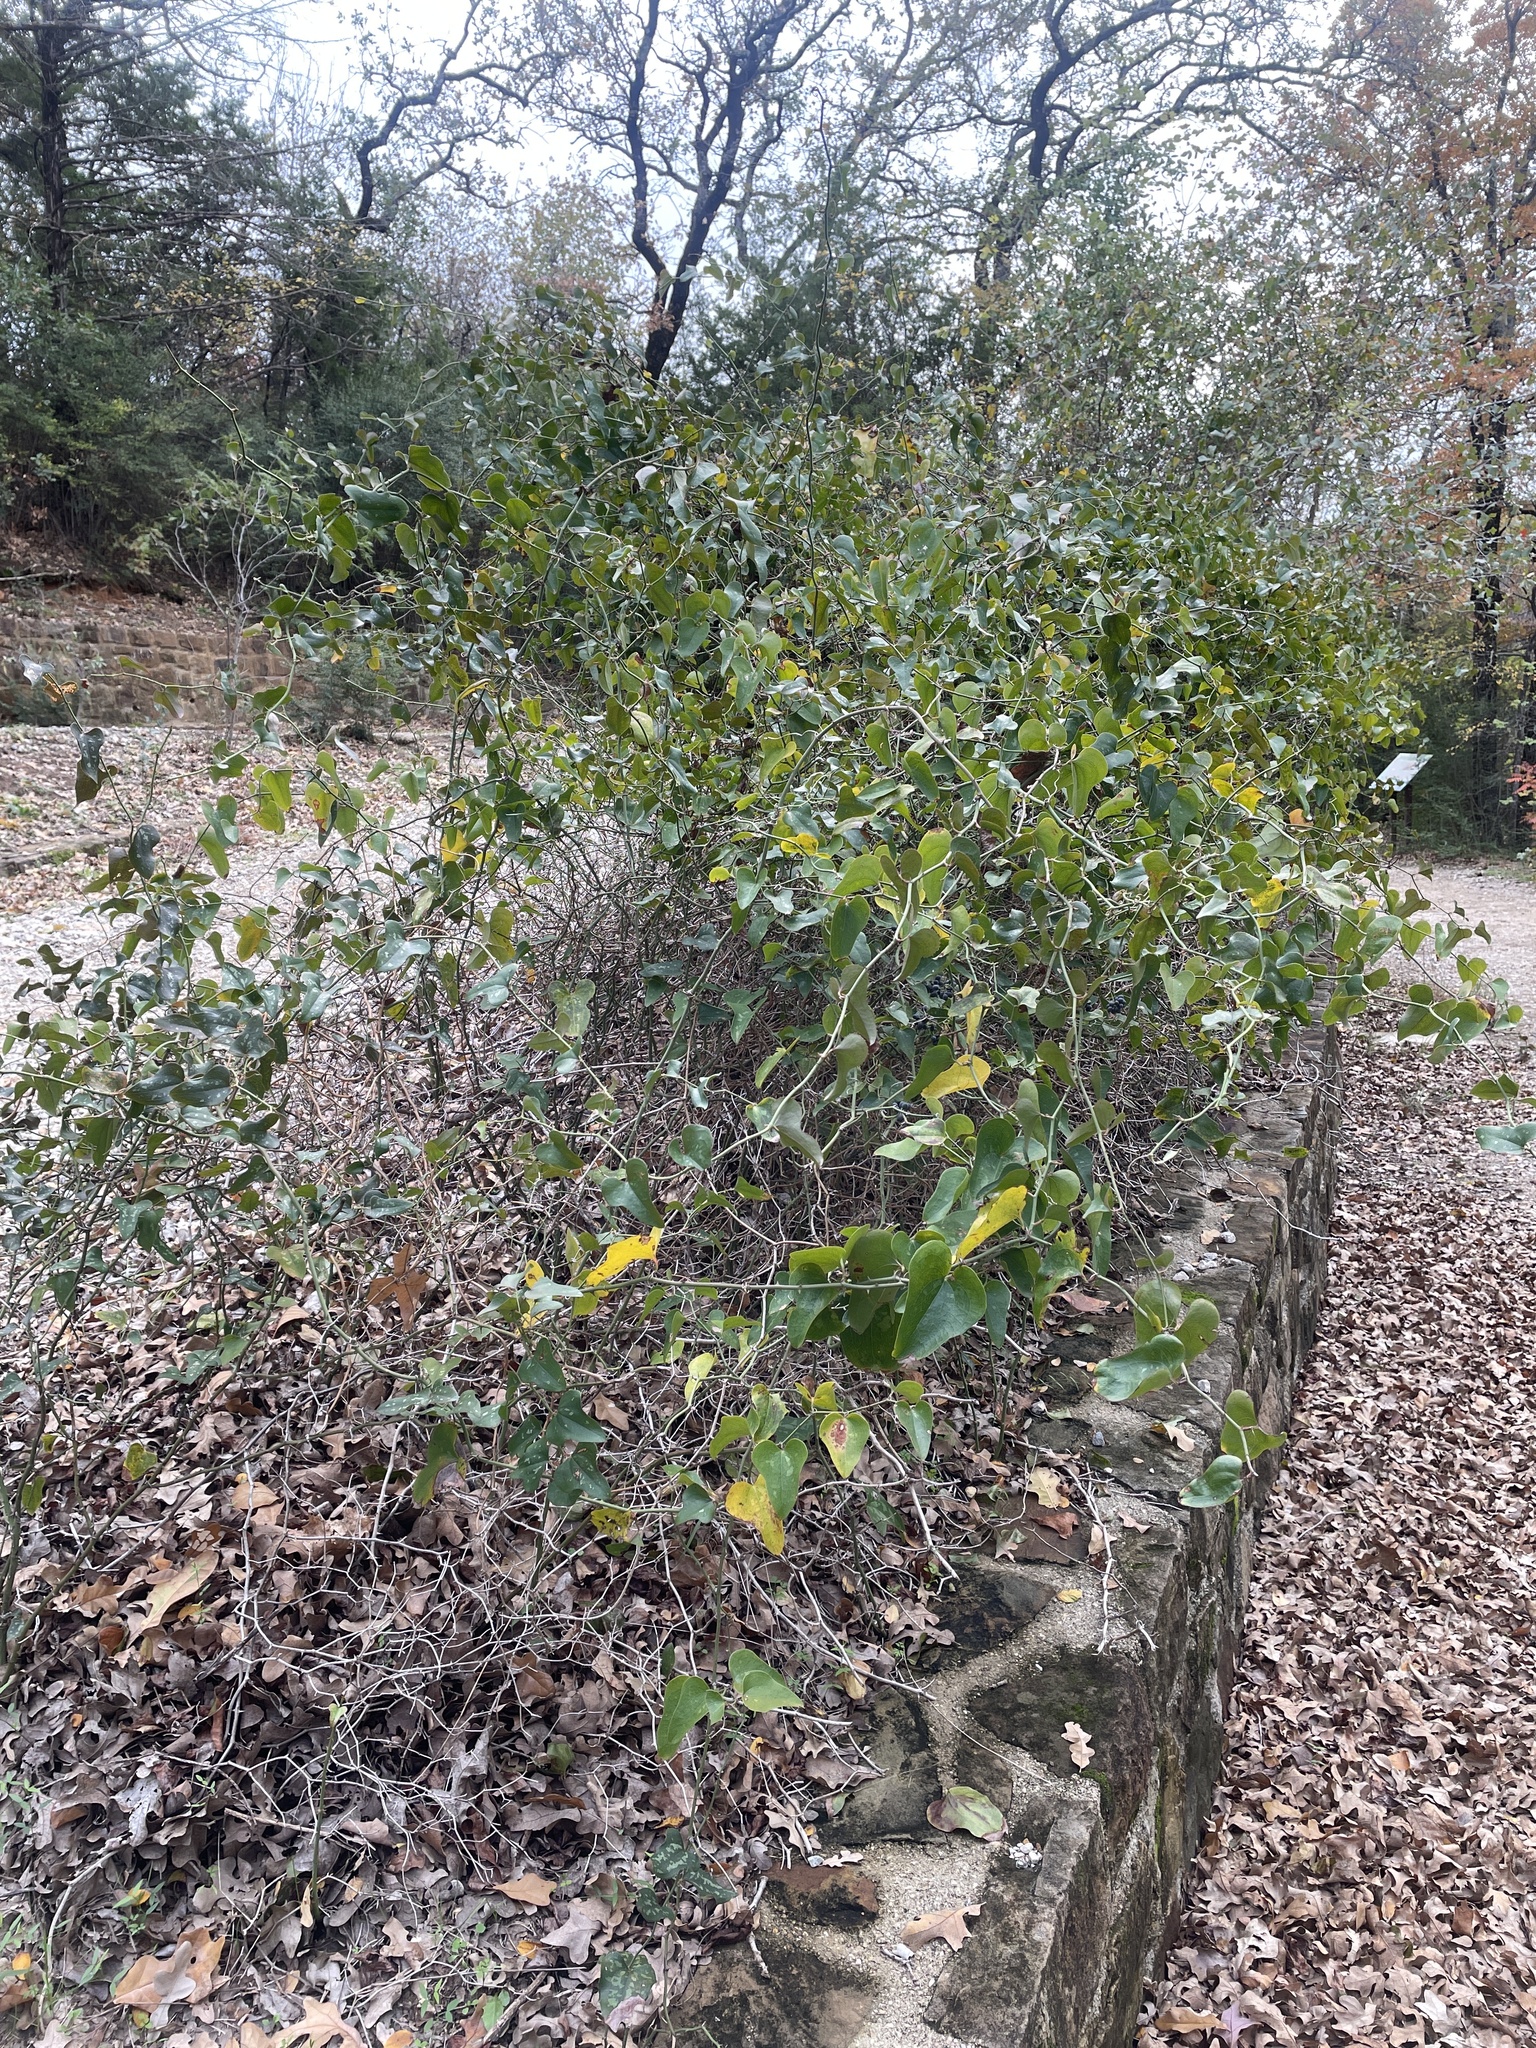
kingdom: Plantae
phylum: Tracheophyta
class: Liliopsida
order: Liliales
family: Smilacaceae
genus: Smilax
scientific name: Smilax bona-nox
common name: Catbrier
